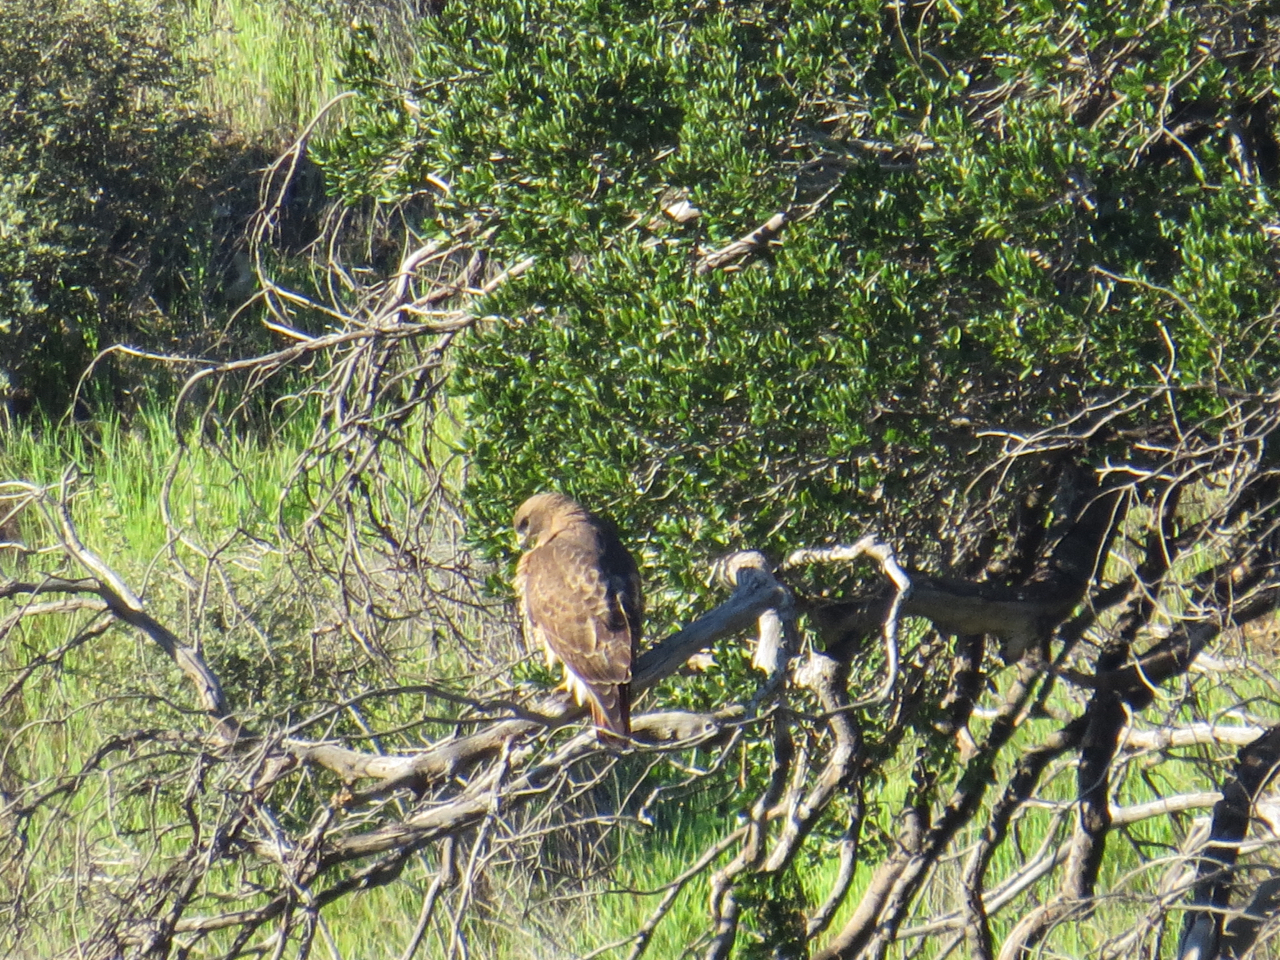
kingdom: Animalia
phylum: Chordata
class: Aves
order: Accipitriformes
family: Accipitridae
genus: Buteo
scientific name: Buteo jamaicensis
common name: Red-tailed hawk
